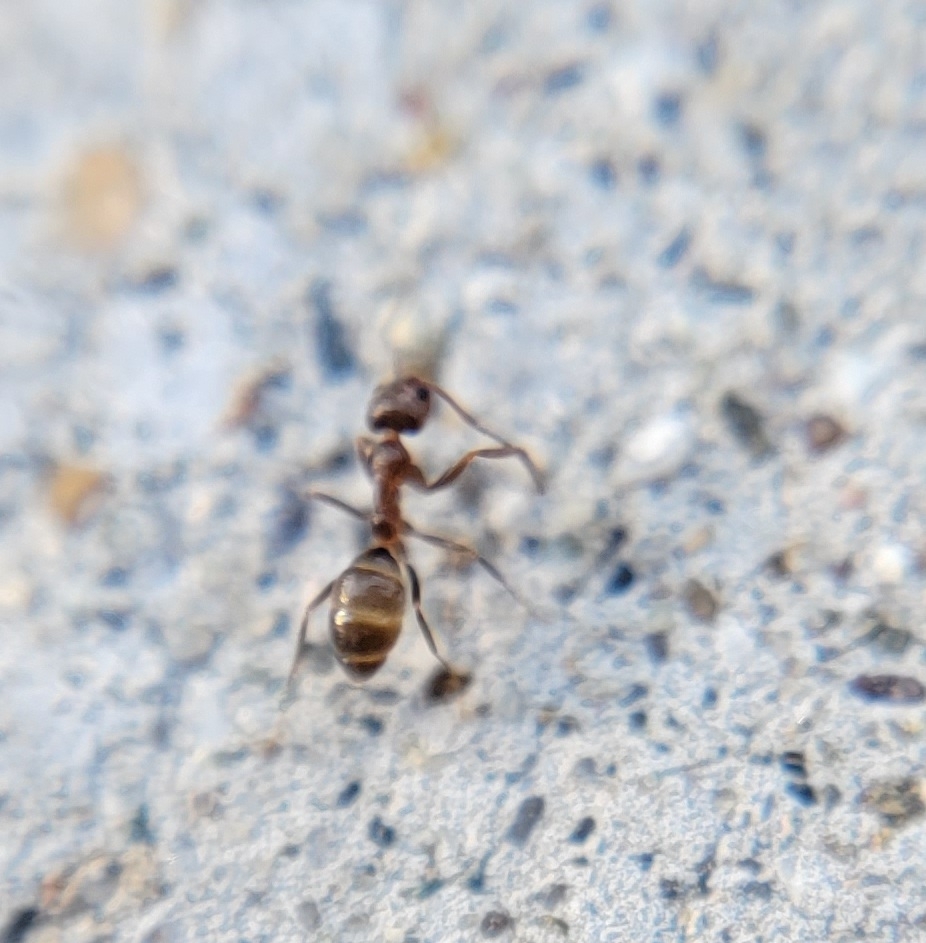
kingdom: Animalia
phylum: Arthropoda
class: Insecta
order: Hymenoptera
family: Formicidae
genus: Linepithema
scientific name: Linepithema humile
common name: Argentine ant
